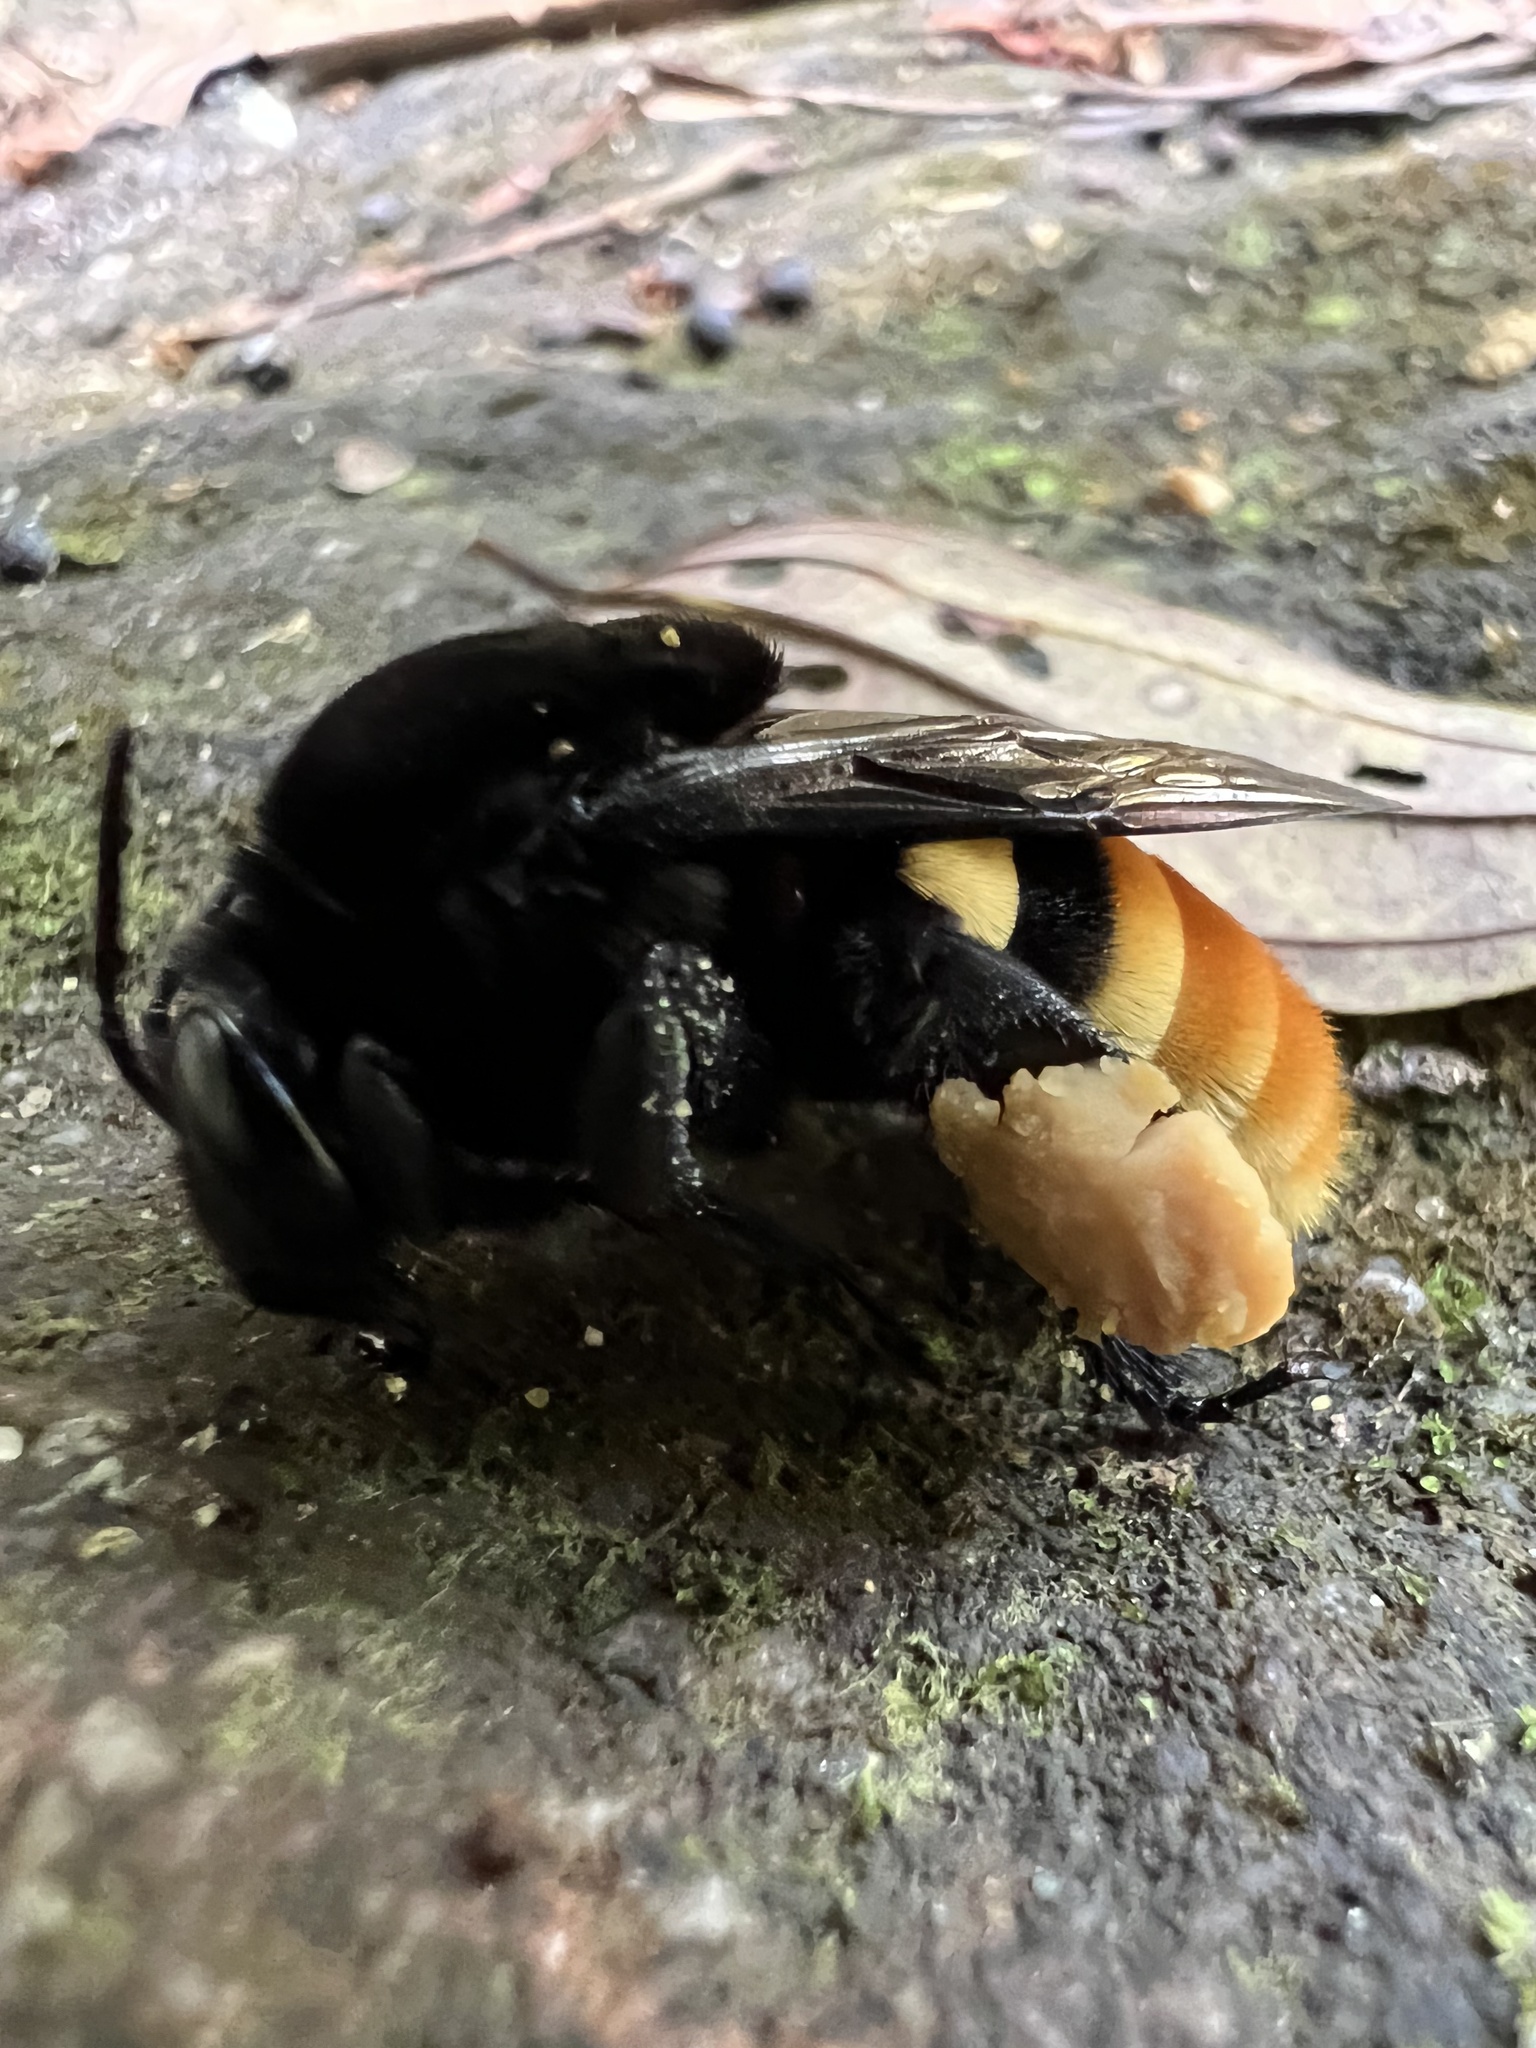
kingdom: Animalia
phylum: Arthropoda
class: Insecta
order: Hymenoptera
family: Apidae
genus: Eulaema
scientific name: Eulaema cingulata
